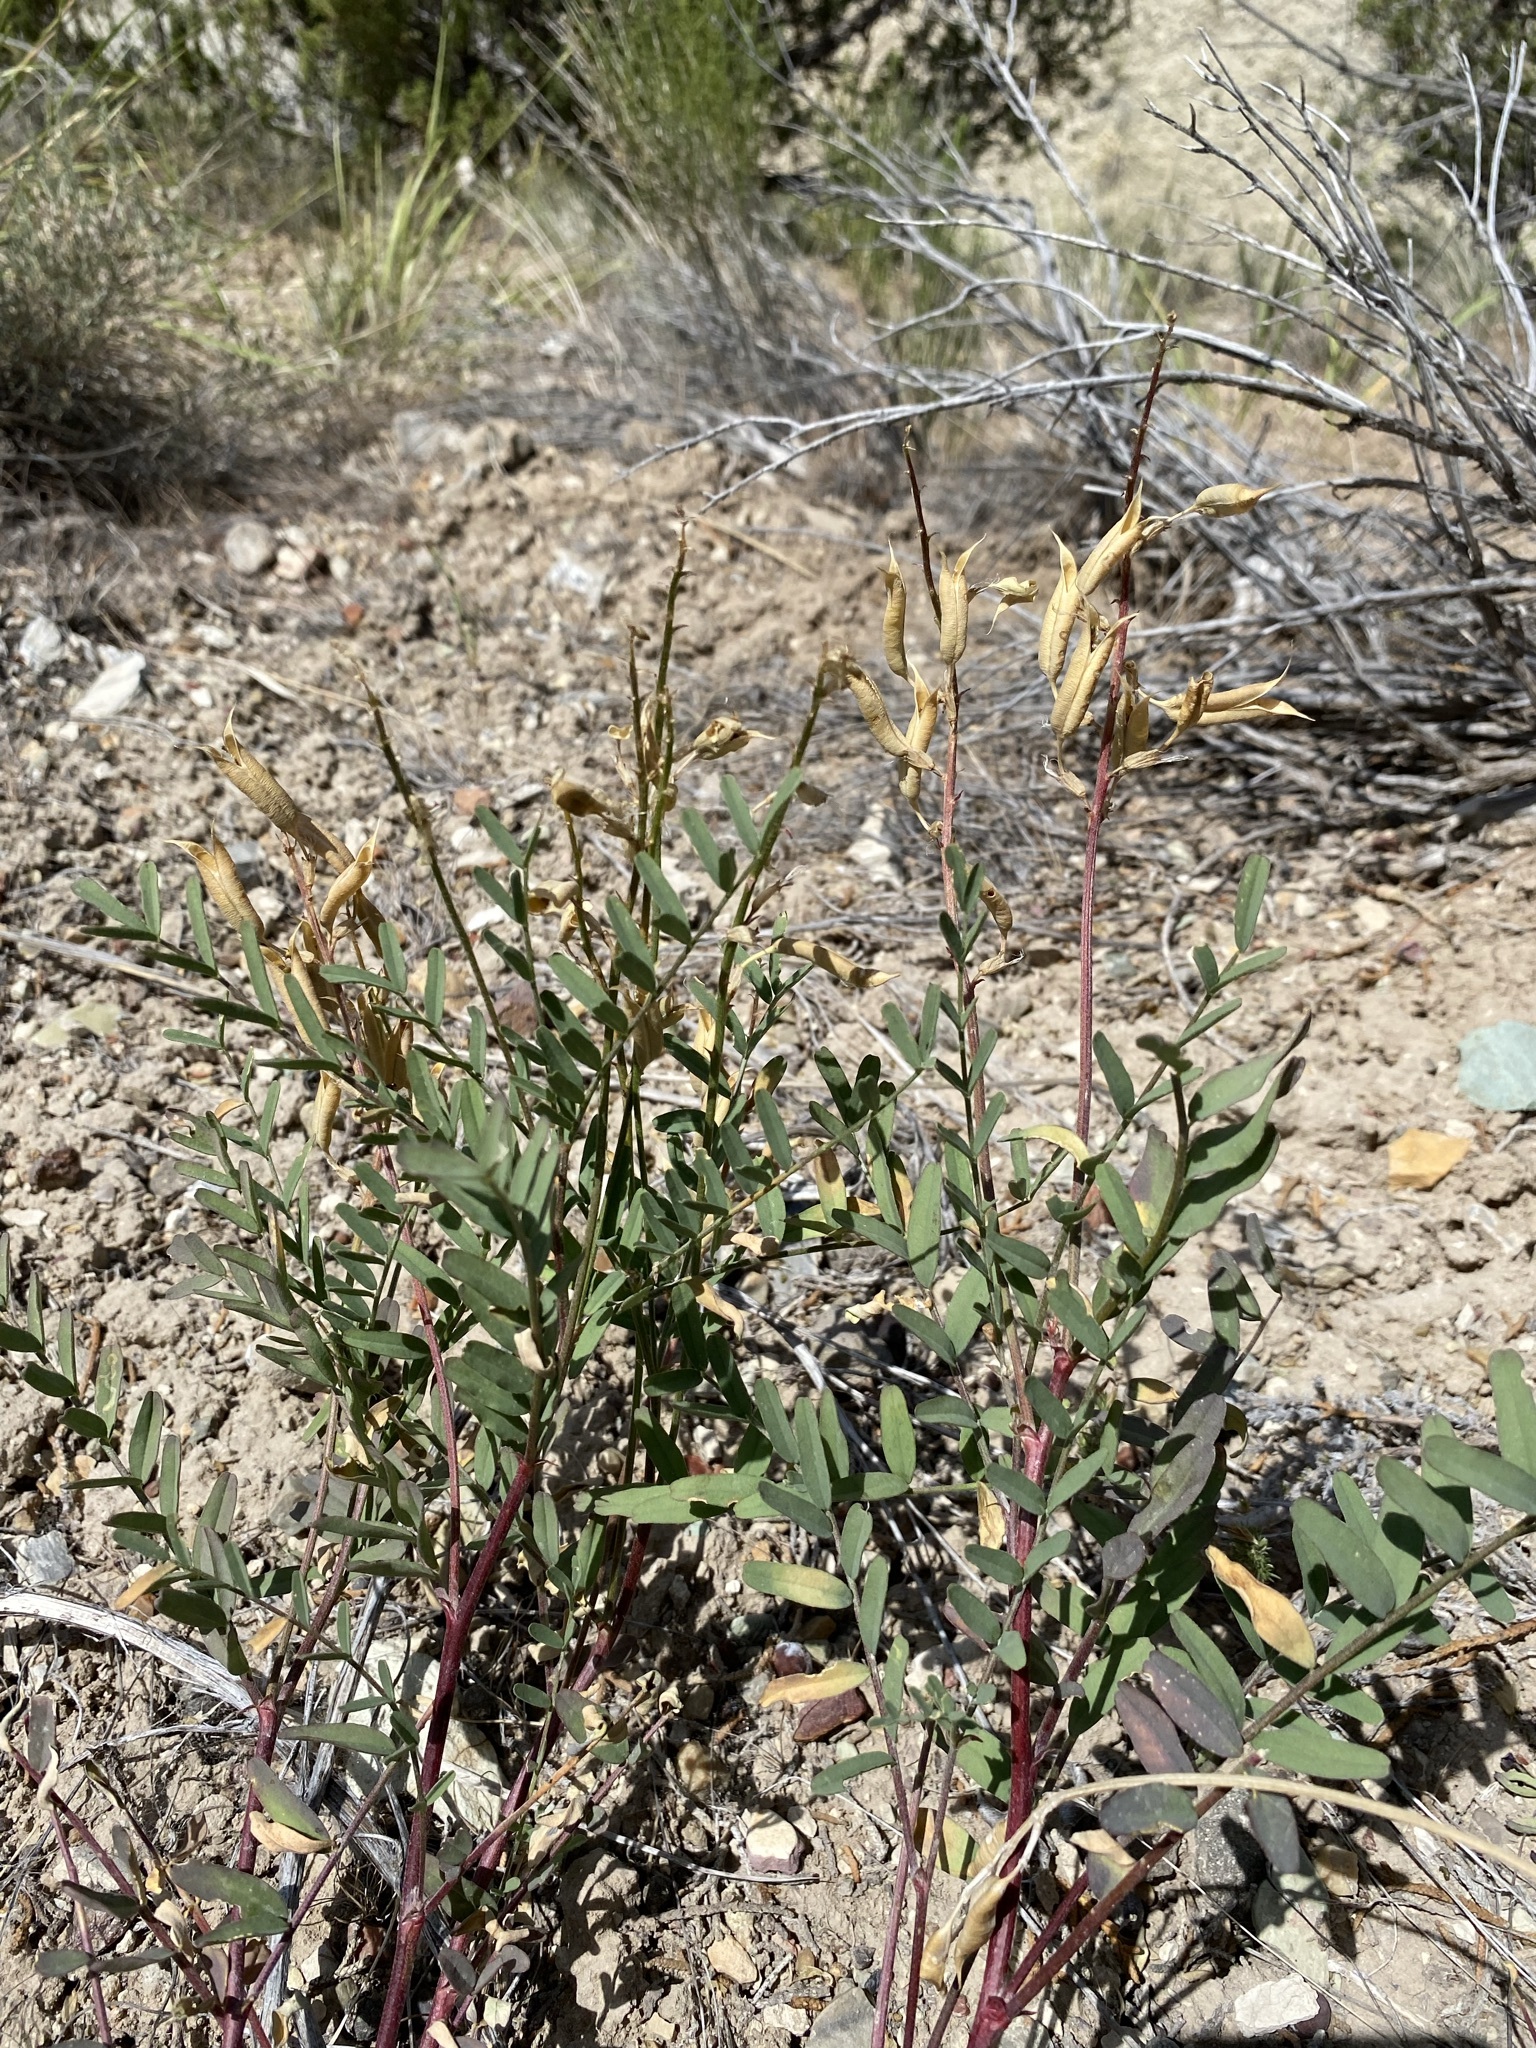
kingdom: Plantae
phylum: Tracheophyta
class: Magnoliopsida
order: Fabales
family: Fabaceae
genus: Astragalus
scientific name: Astragalus eremiticus
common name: Hermit milk-vetch
